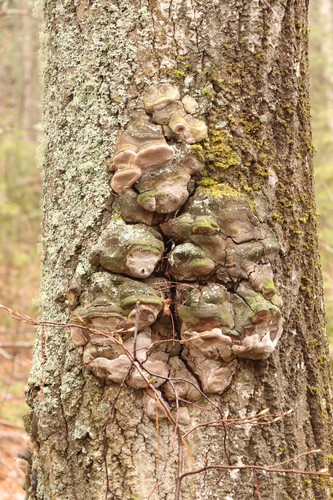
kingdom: Fungi
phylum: Basidiomycota
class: Agaricomycetes
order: Hymenochaetales
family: Hymenochaetaceae
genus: Phellinus
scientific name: Phellinus tremulae
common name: Aspen bracket
